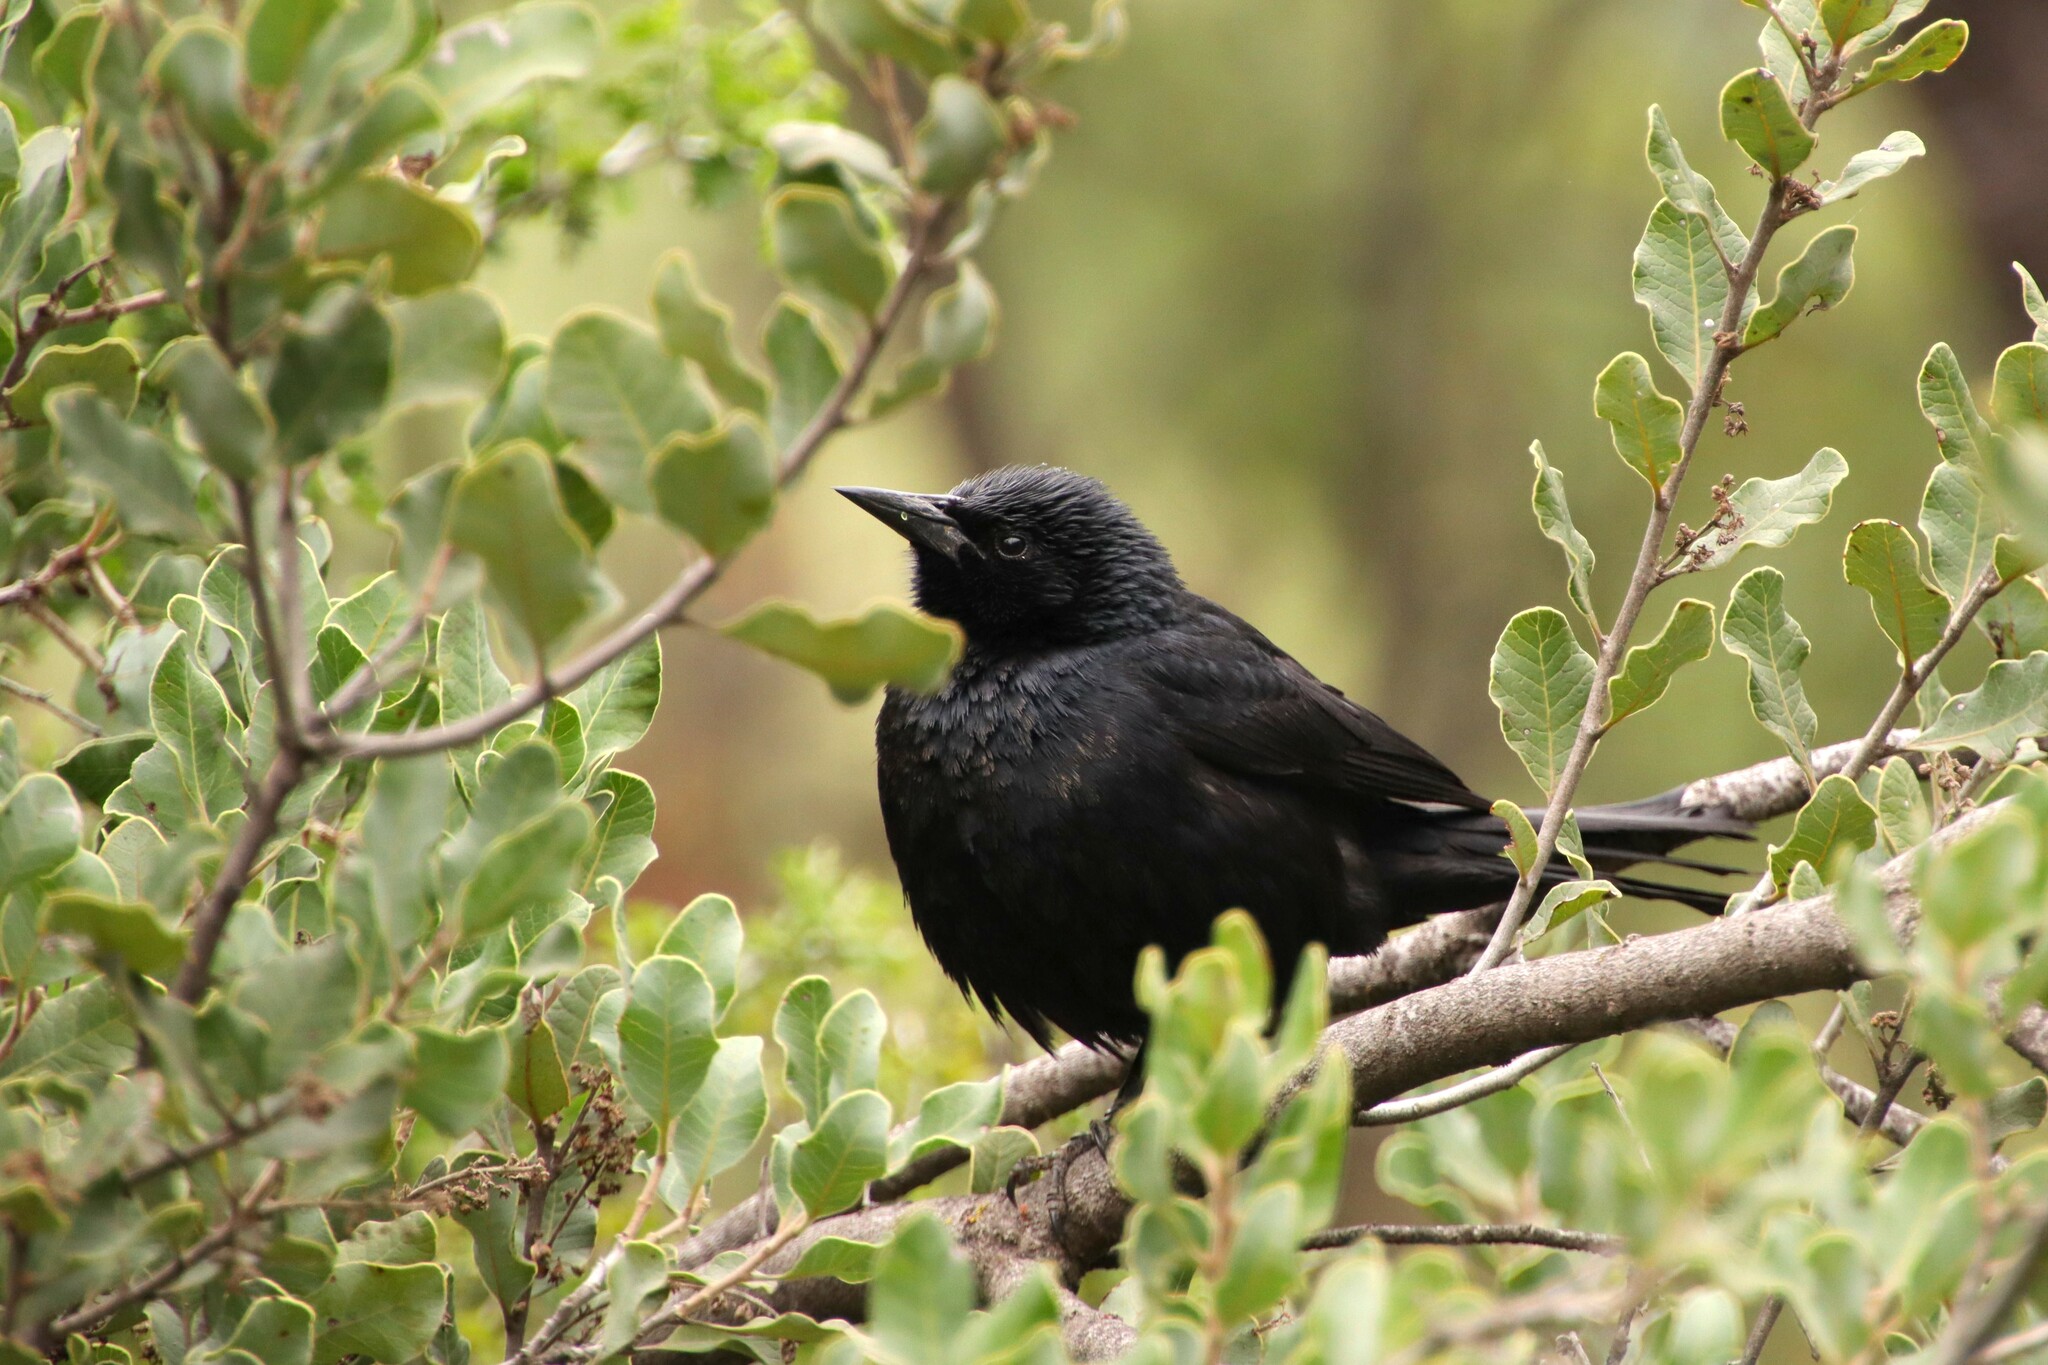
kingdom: Animalia
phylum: Chordata
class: Aves
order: Passeriformes
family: Icteridae
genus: Curaeus
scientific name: Curaeus curaeus
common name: Austral blackbird
